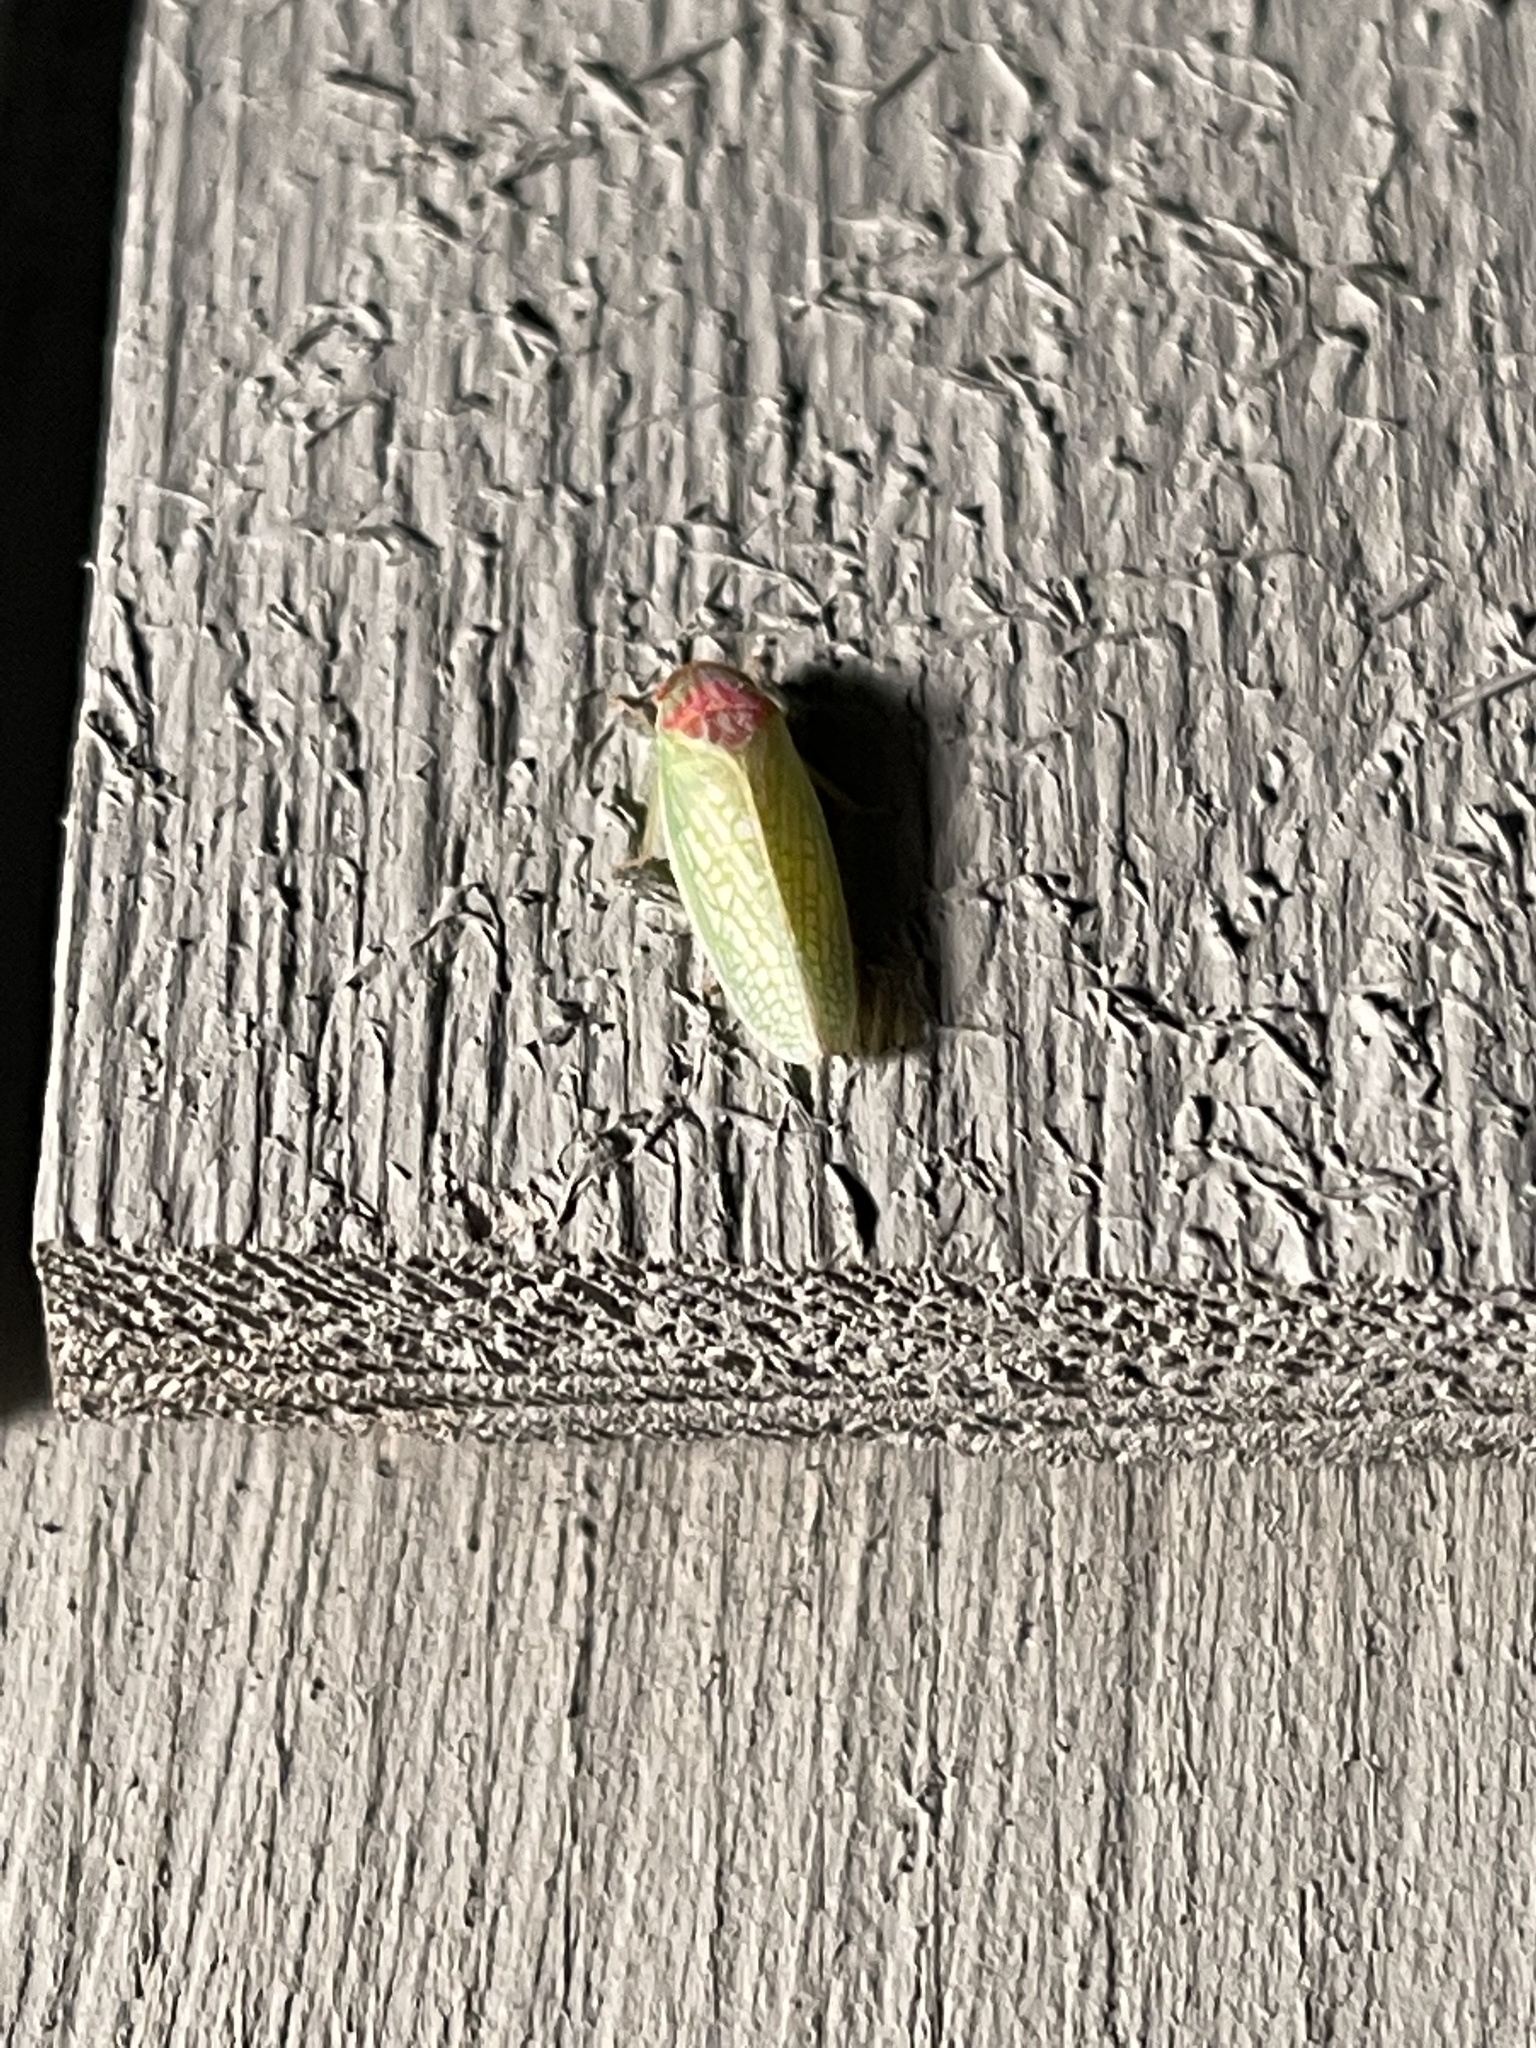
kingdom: Animalia
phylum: Arthropoda
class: Insecta
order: Hemiptera
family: Cicadellidae
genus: Gyponana
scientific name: Gyponana octolineata
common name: Eight-lined leafhopper
